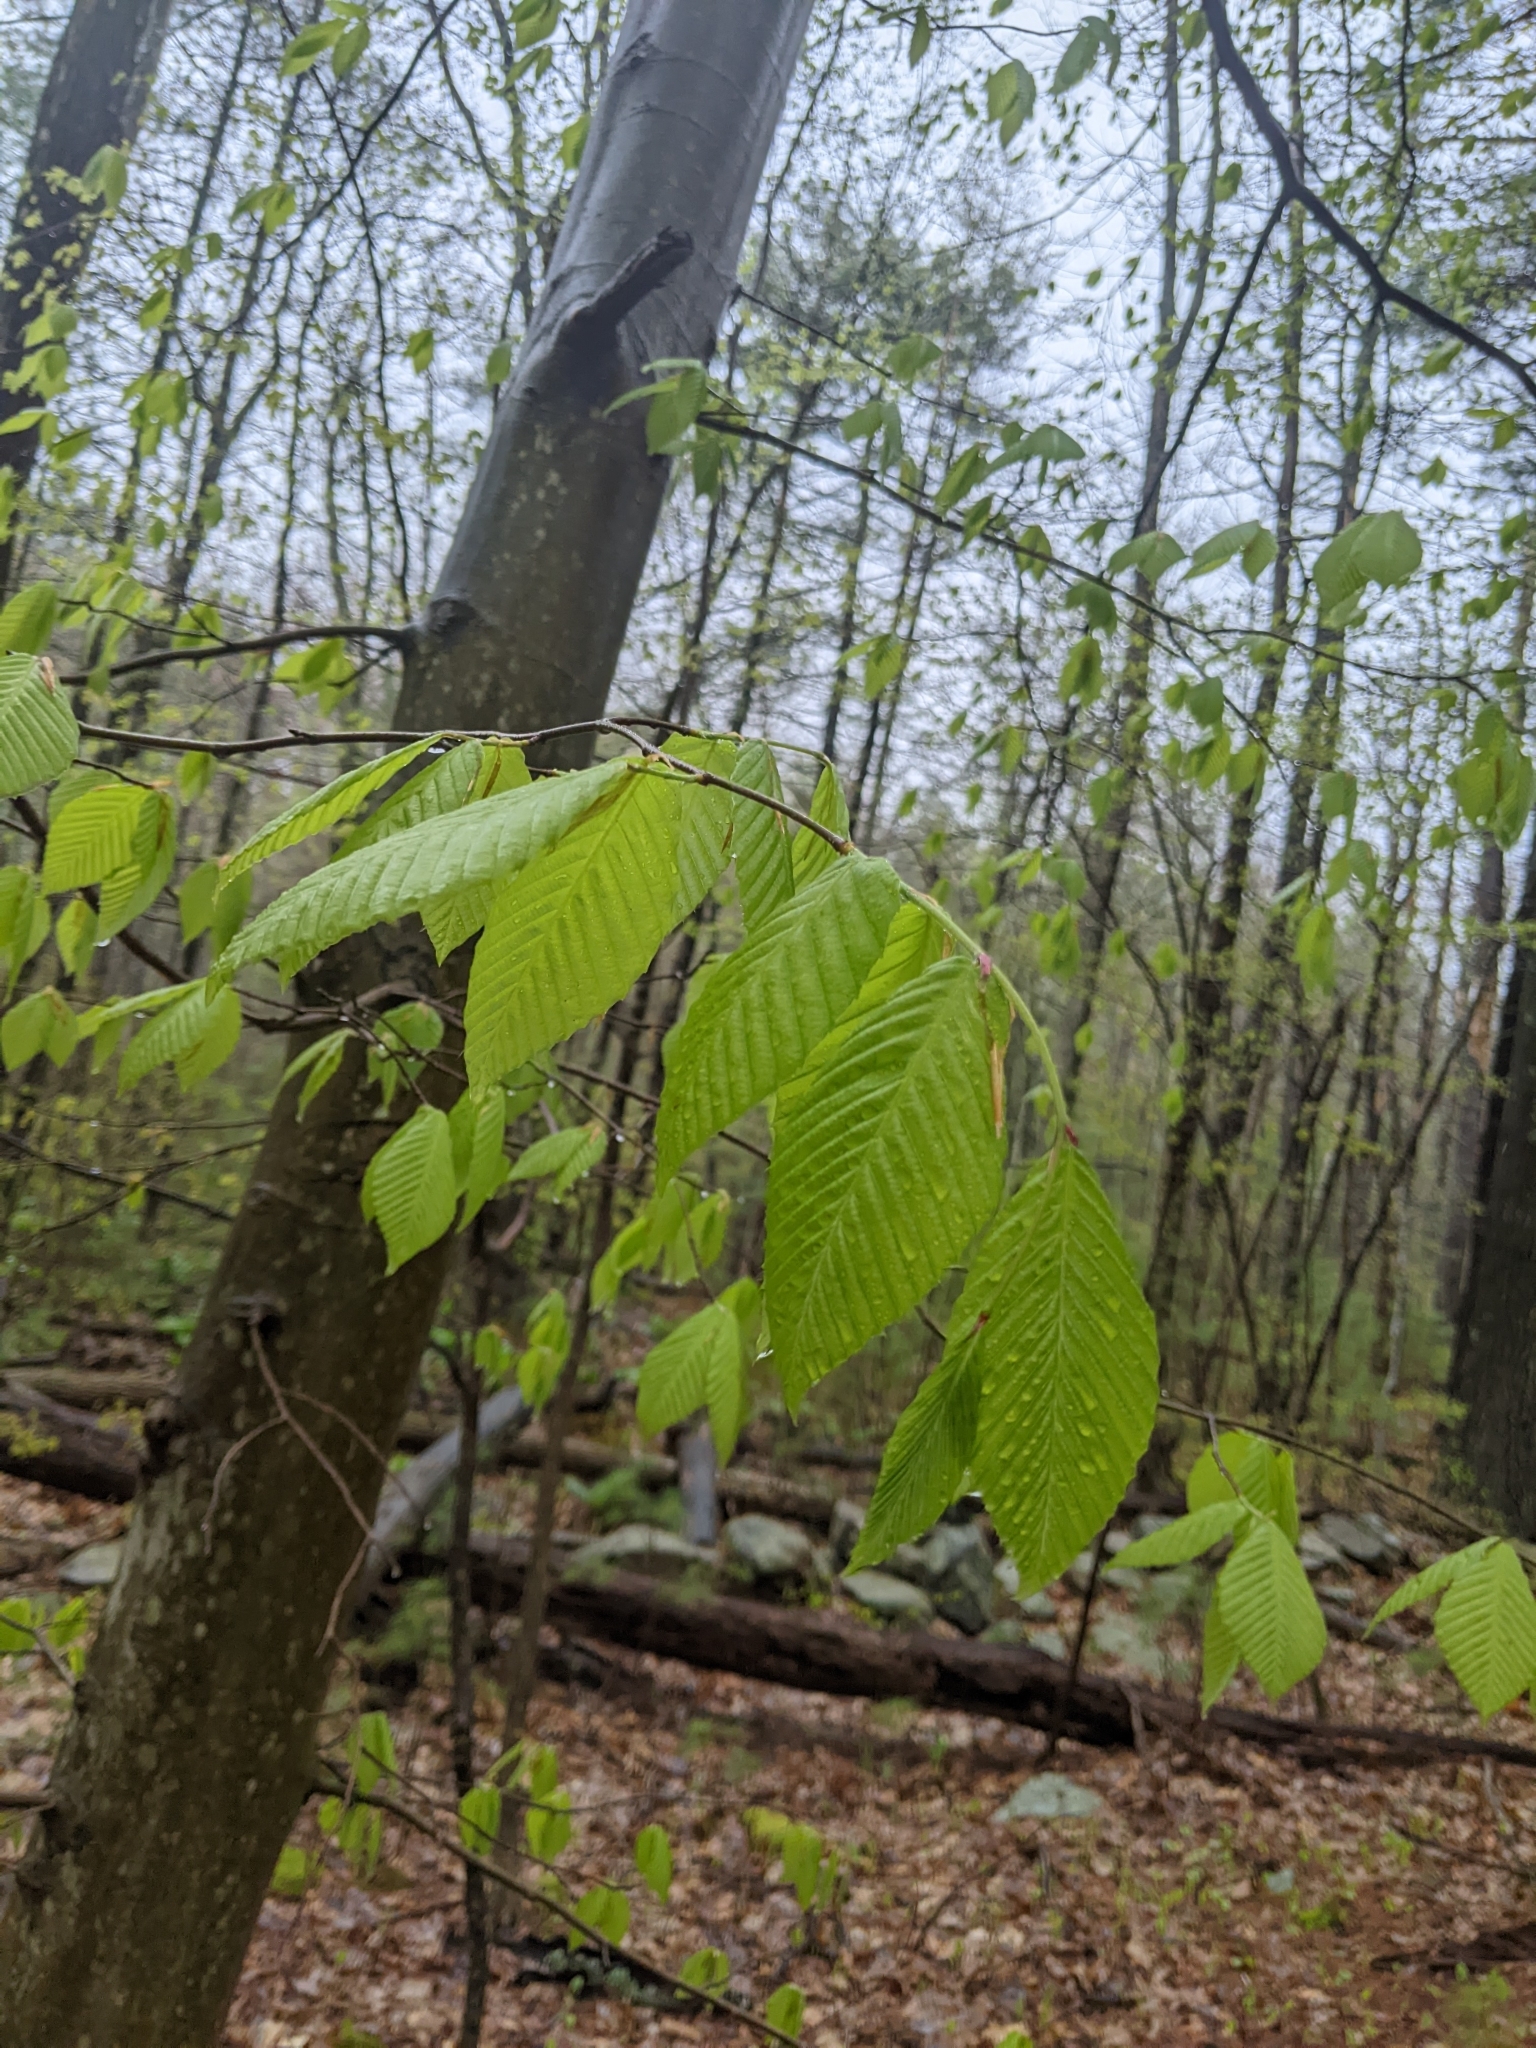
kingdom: Plantae
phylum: Tracheophyta
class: Magnoliopsida
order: Fagales
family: Fagaceae
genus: Fagus
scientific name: Fagus grandifolia
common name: American beech
